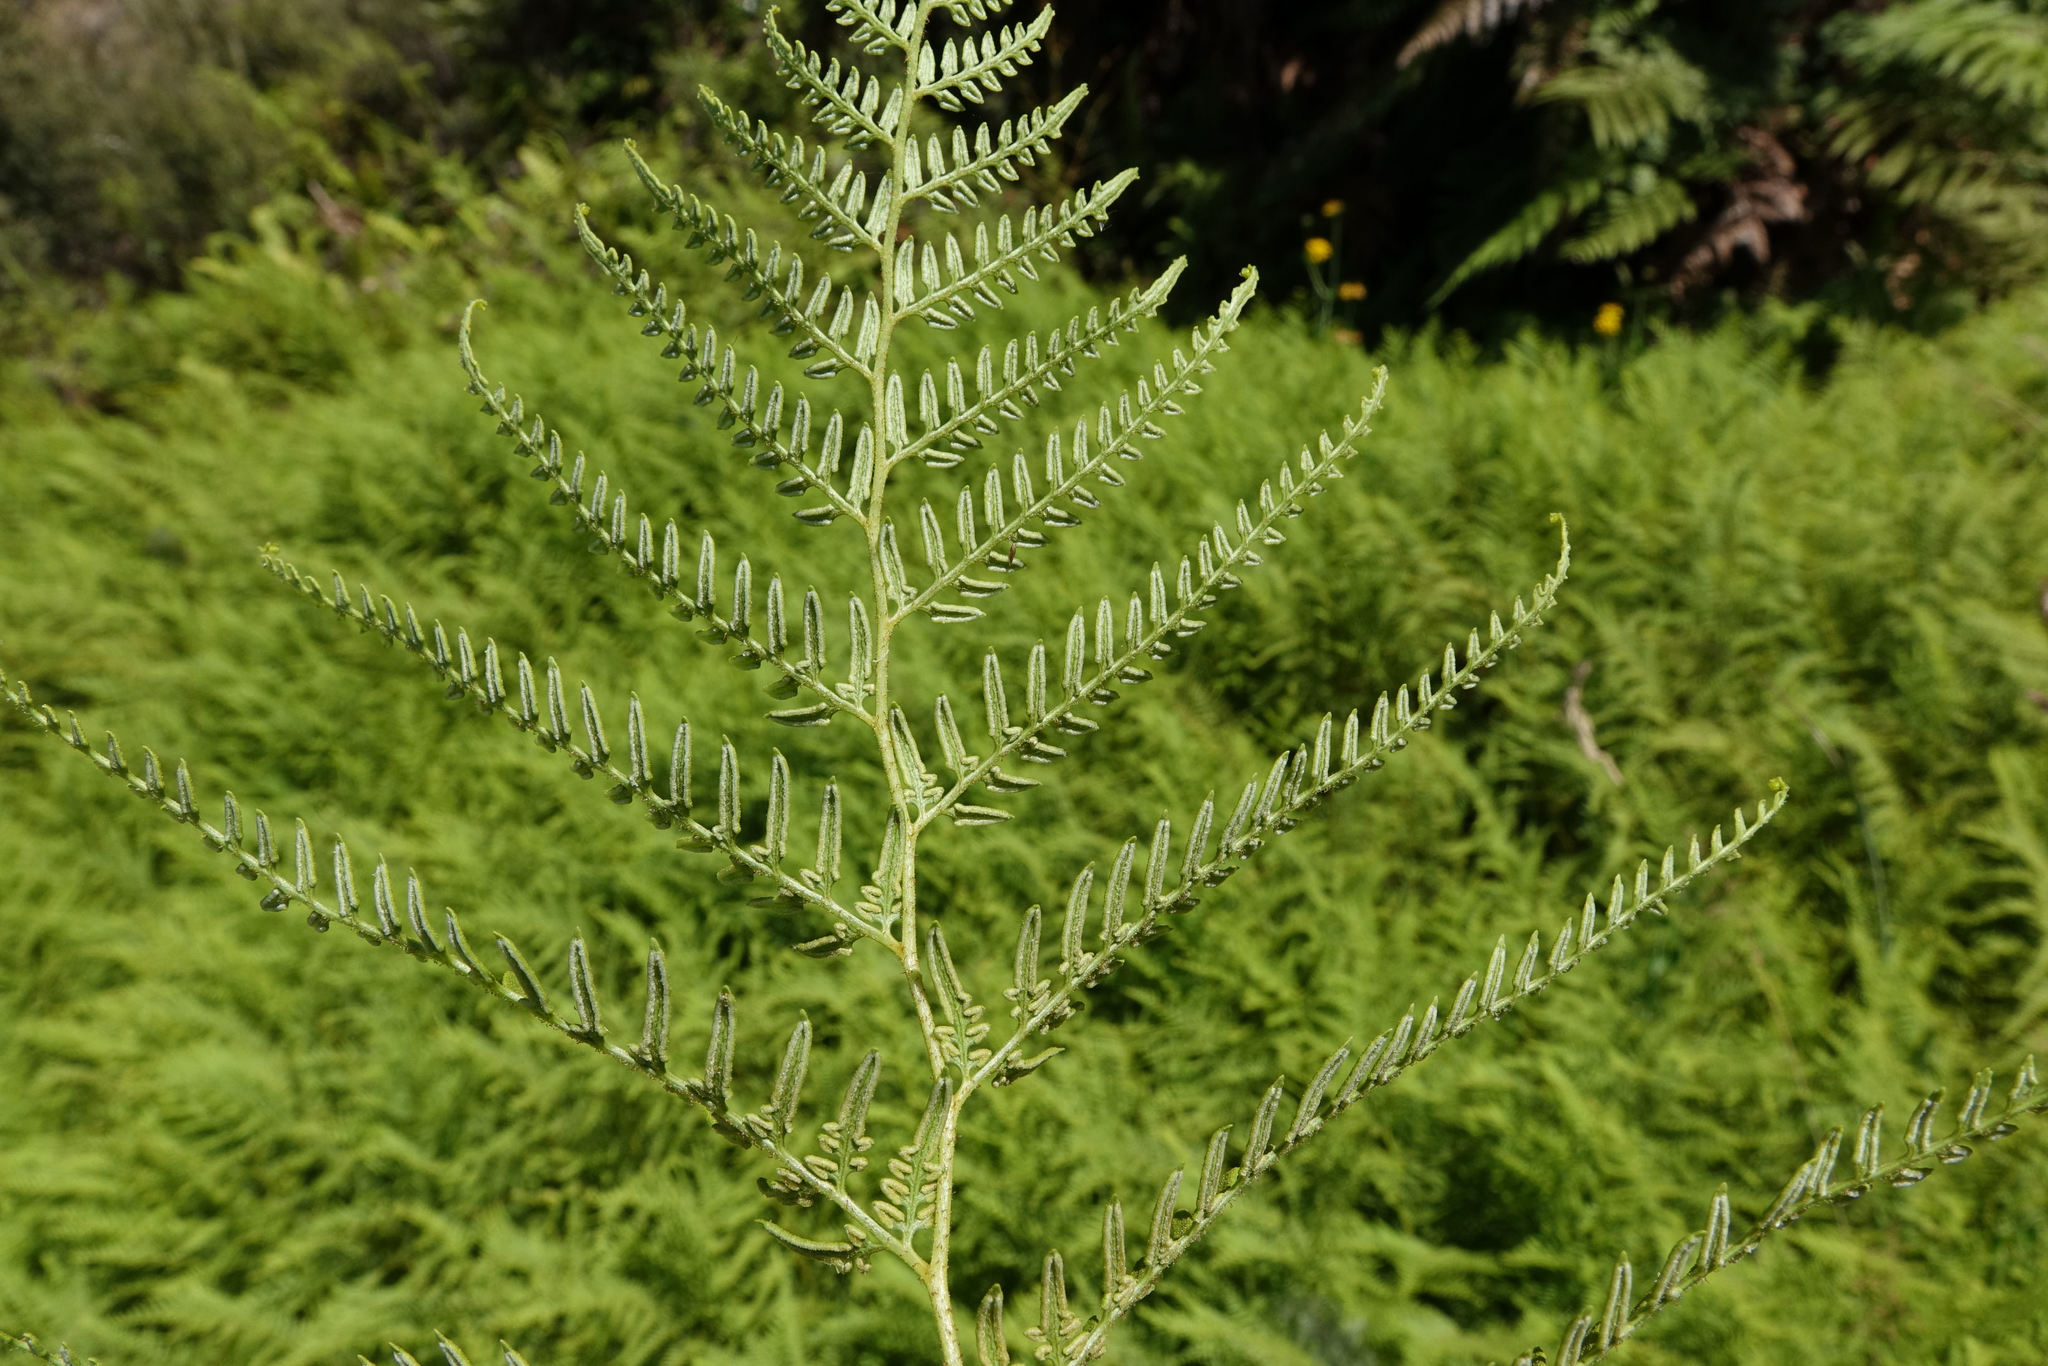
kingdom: Plantae
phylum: Tracheophyta
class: Polypodiopsida
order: Polypodiales
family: Dennstaedtiaceae
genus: Paesia
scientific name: Paesia scaberula
